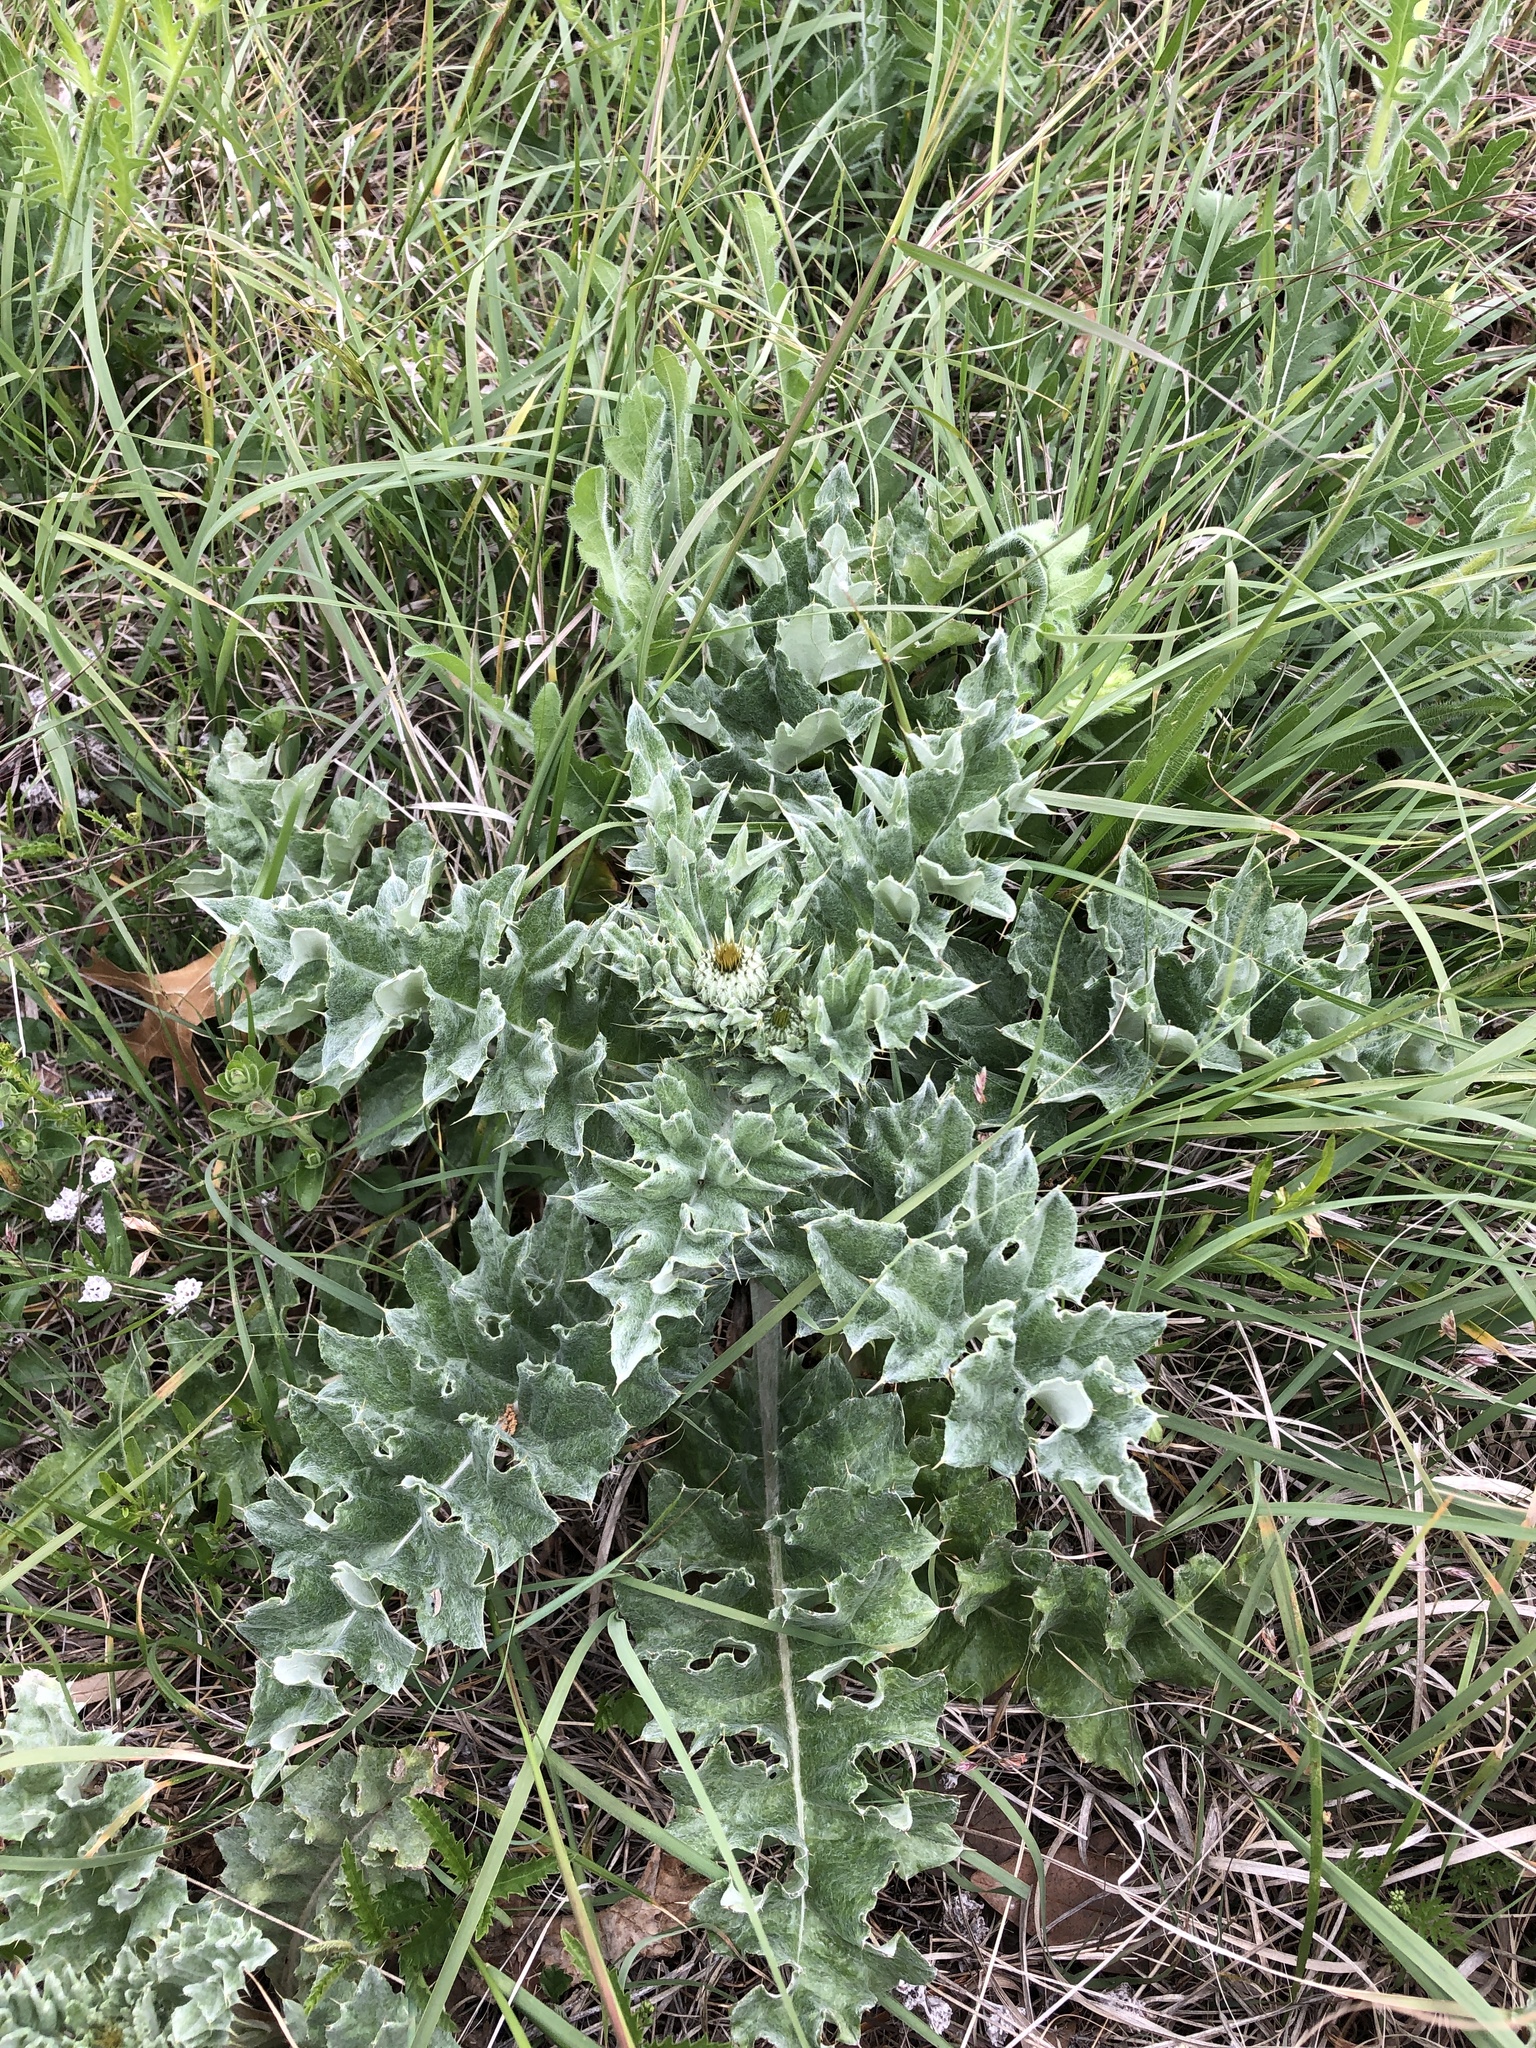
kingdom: Plantae
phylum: Tracheophyta
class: Magnoliopsida
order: Asterales
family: Asteraceae
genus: Cirsium
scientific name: Cirsium undulatum
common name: Pasture thistle
